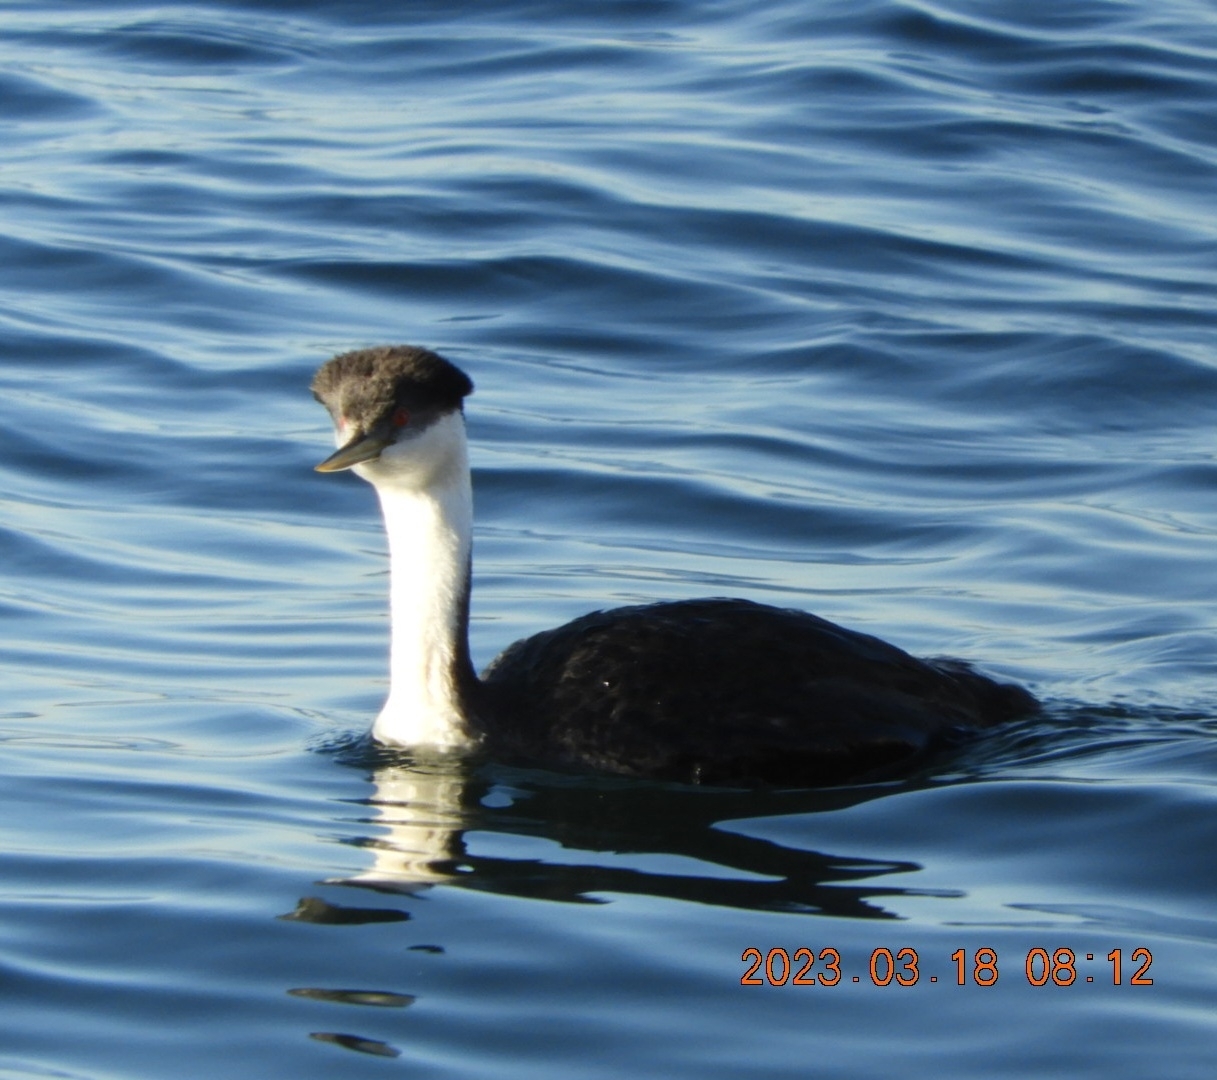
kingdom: Animalia
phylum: Chordata
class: Aves
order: Podicipediformes
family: Podicipedidae
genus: Aechmophorus
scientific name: Aechmophorus occidentalis
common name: Western grebe
